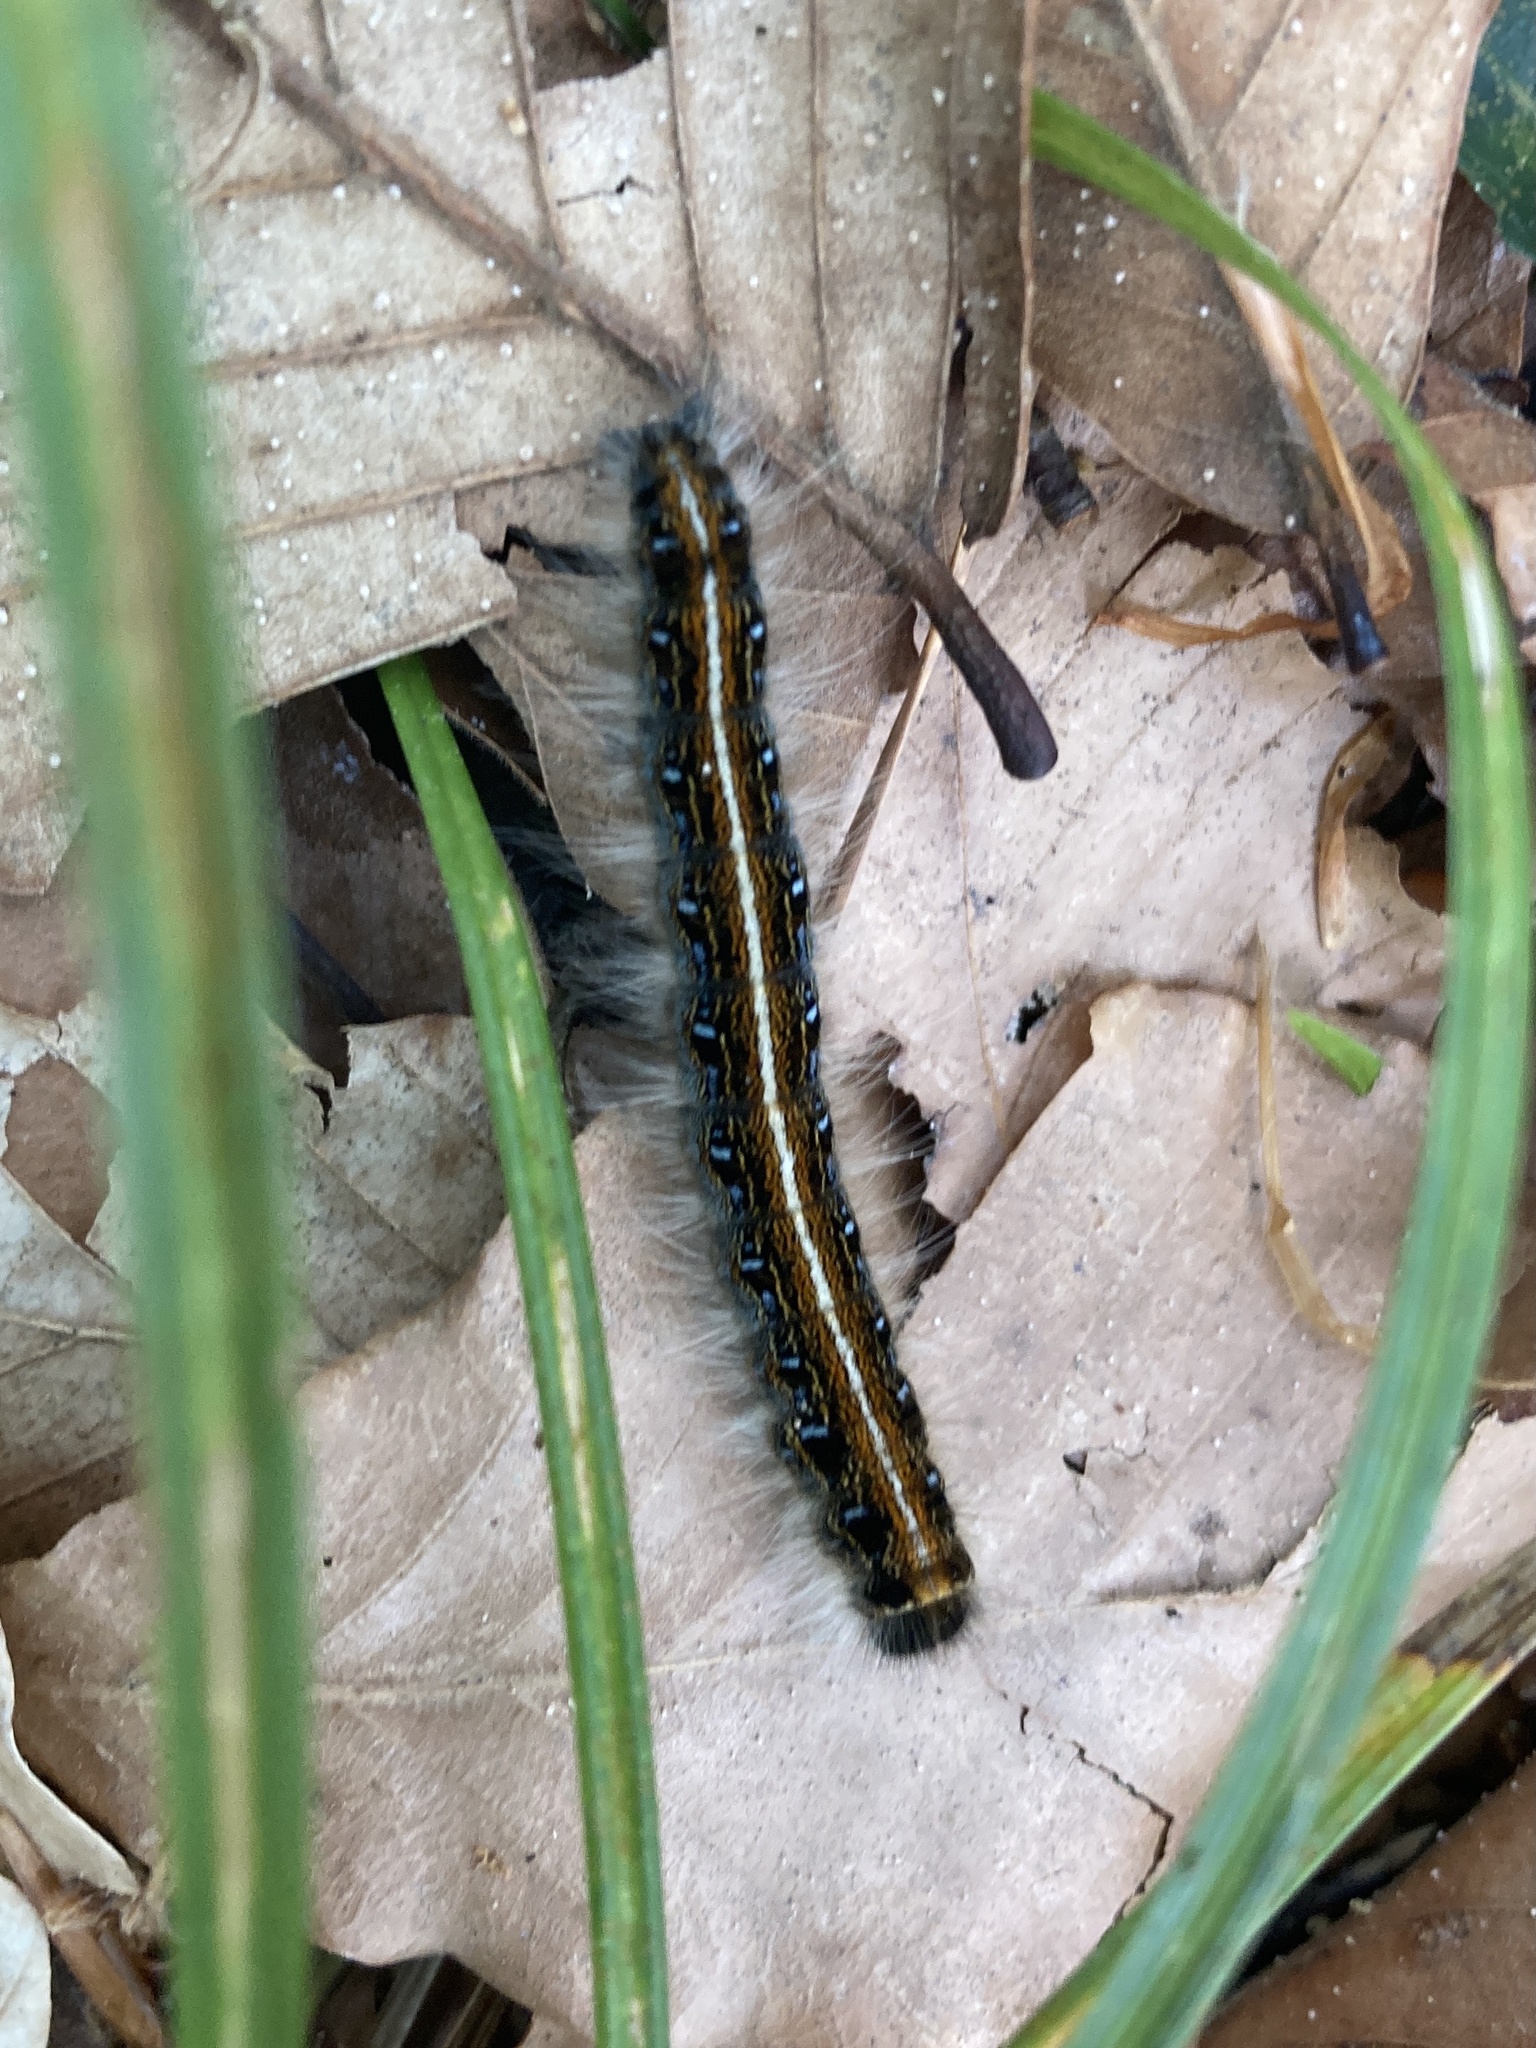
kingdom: Animalia
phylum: Arthropoda
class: Insecta
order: Lepidoptera
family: Lasiocampidae
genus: Malacosoma
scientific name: Malacosoma americana
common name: Eastern tent caterpillar moth
